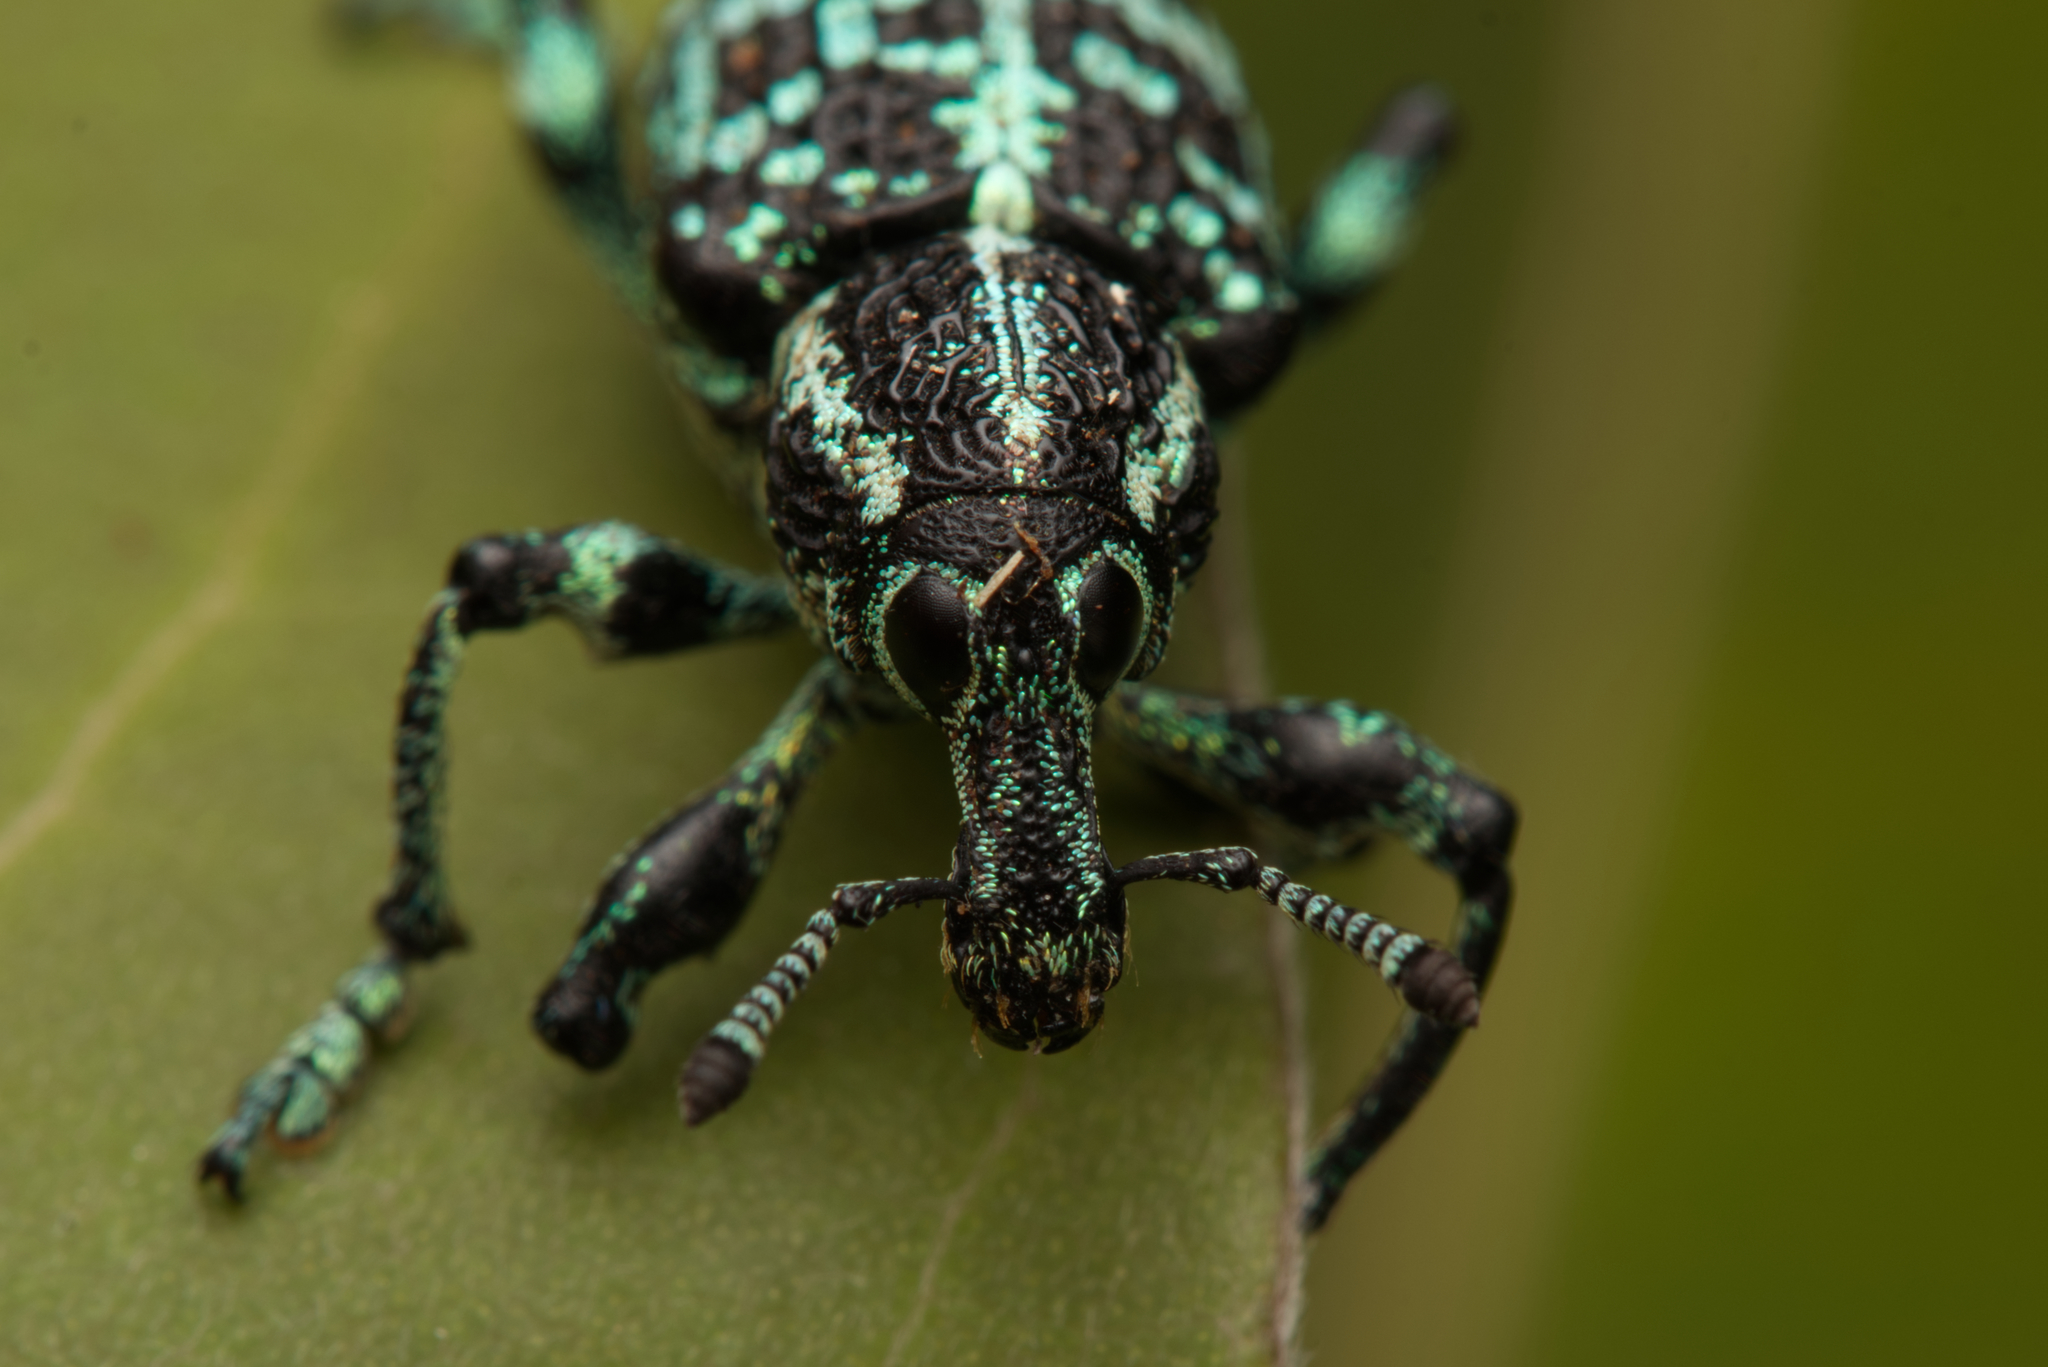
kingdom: Animalia
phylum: Arthropoda
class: Insecta
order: Coleoptera
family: Curculionidae
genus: Chrysolopus
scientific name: Chrysolopus spectabilis
